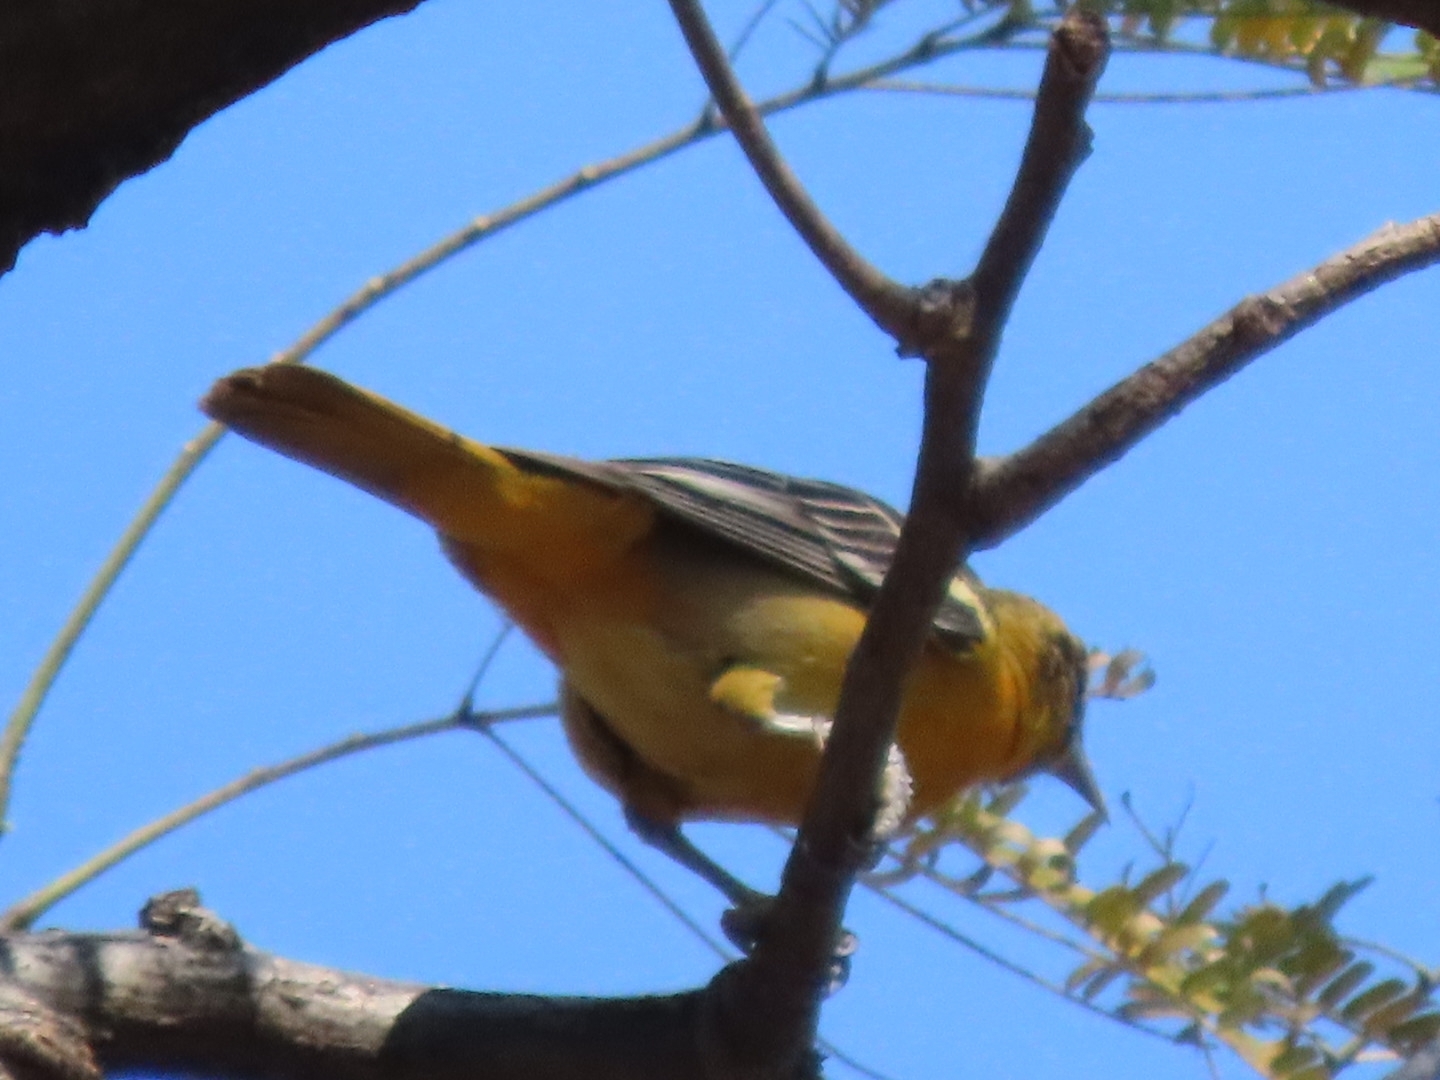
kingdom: Animalia
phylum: Chordata
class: Aves
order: Passeriformes
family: Icteridae
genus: Icterus
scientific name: Icterus galbula
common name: Baltimore oriole
